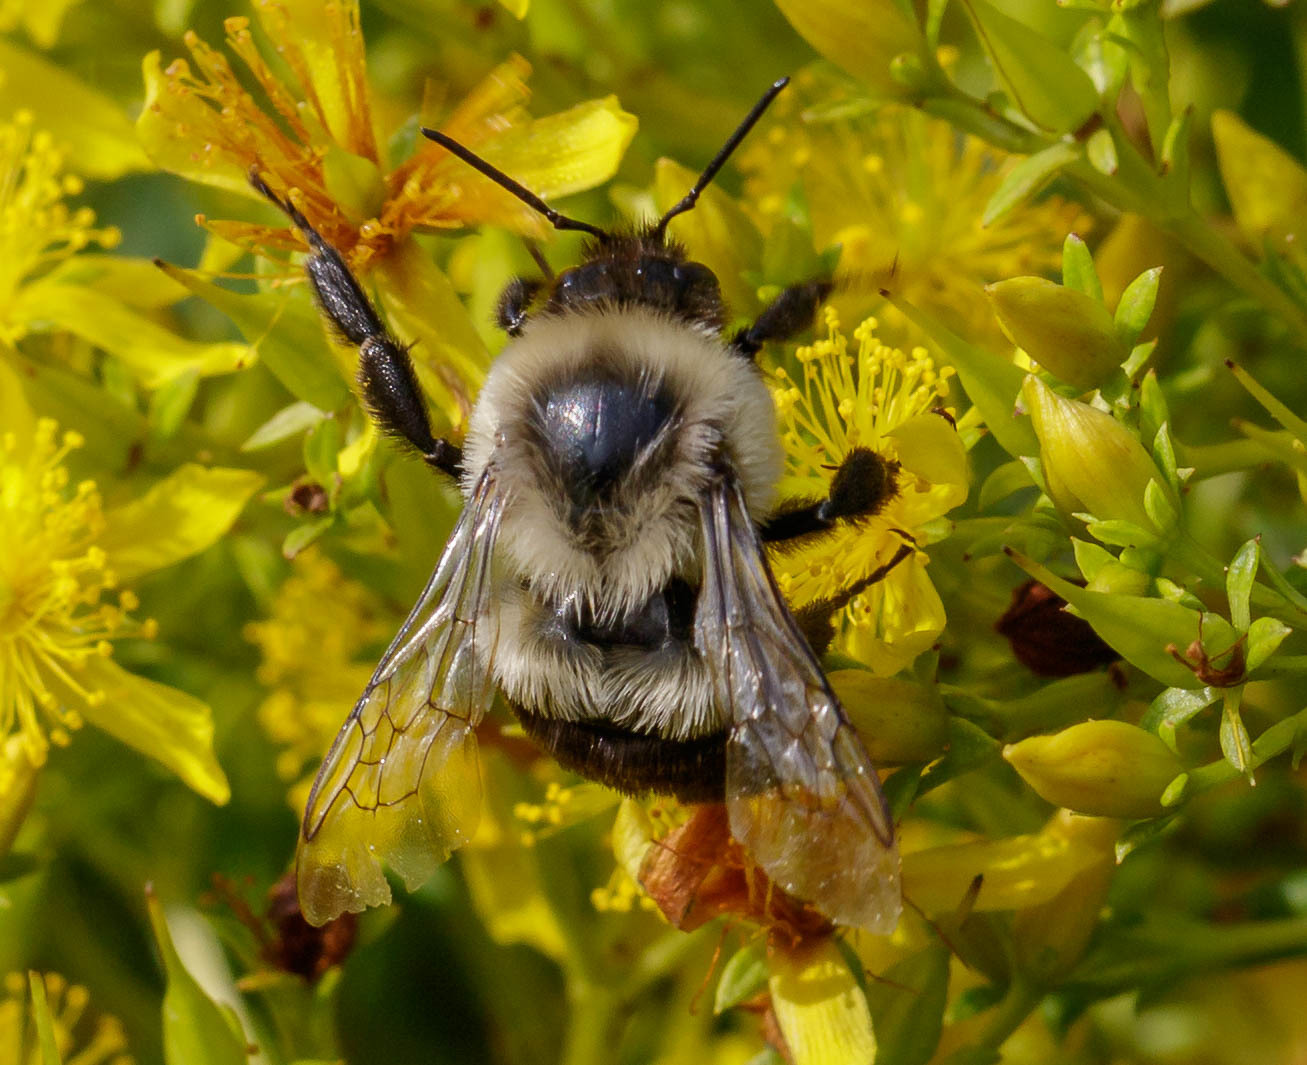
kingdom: Animalia
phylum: Arthropoda
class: Insecta
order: Hymenoptera
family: Apidae
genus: Bombus
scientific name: Bombus impatiens
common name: Common eastern bumble bee
